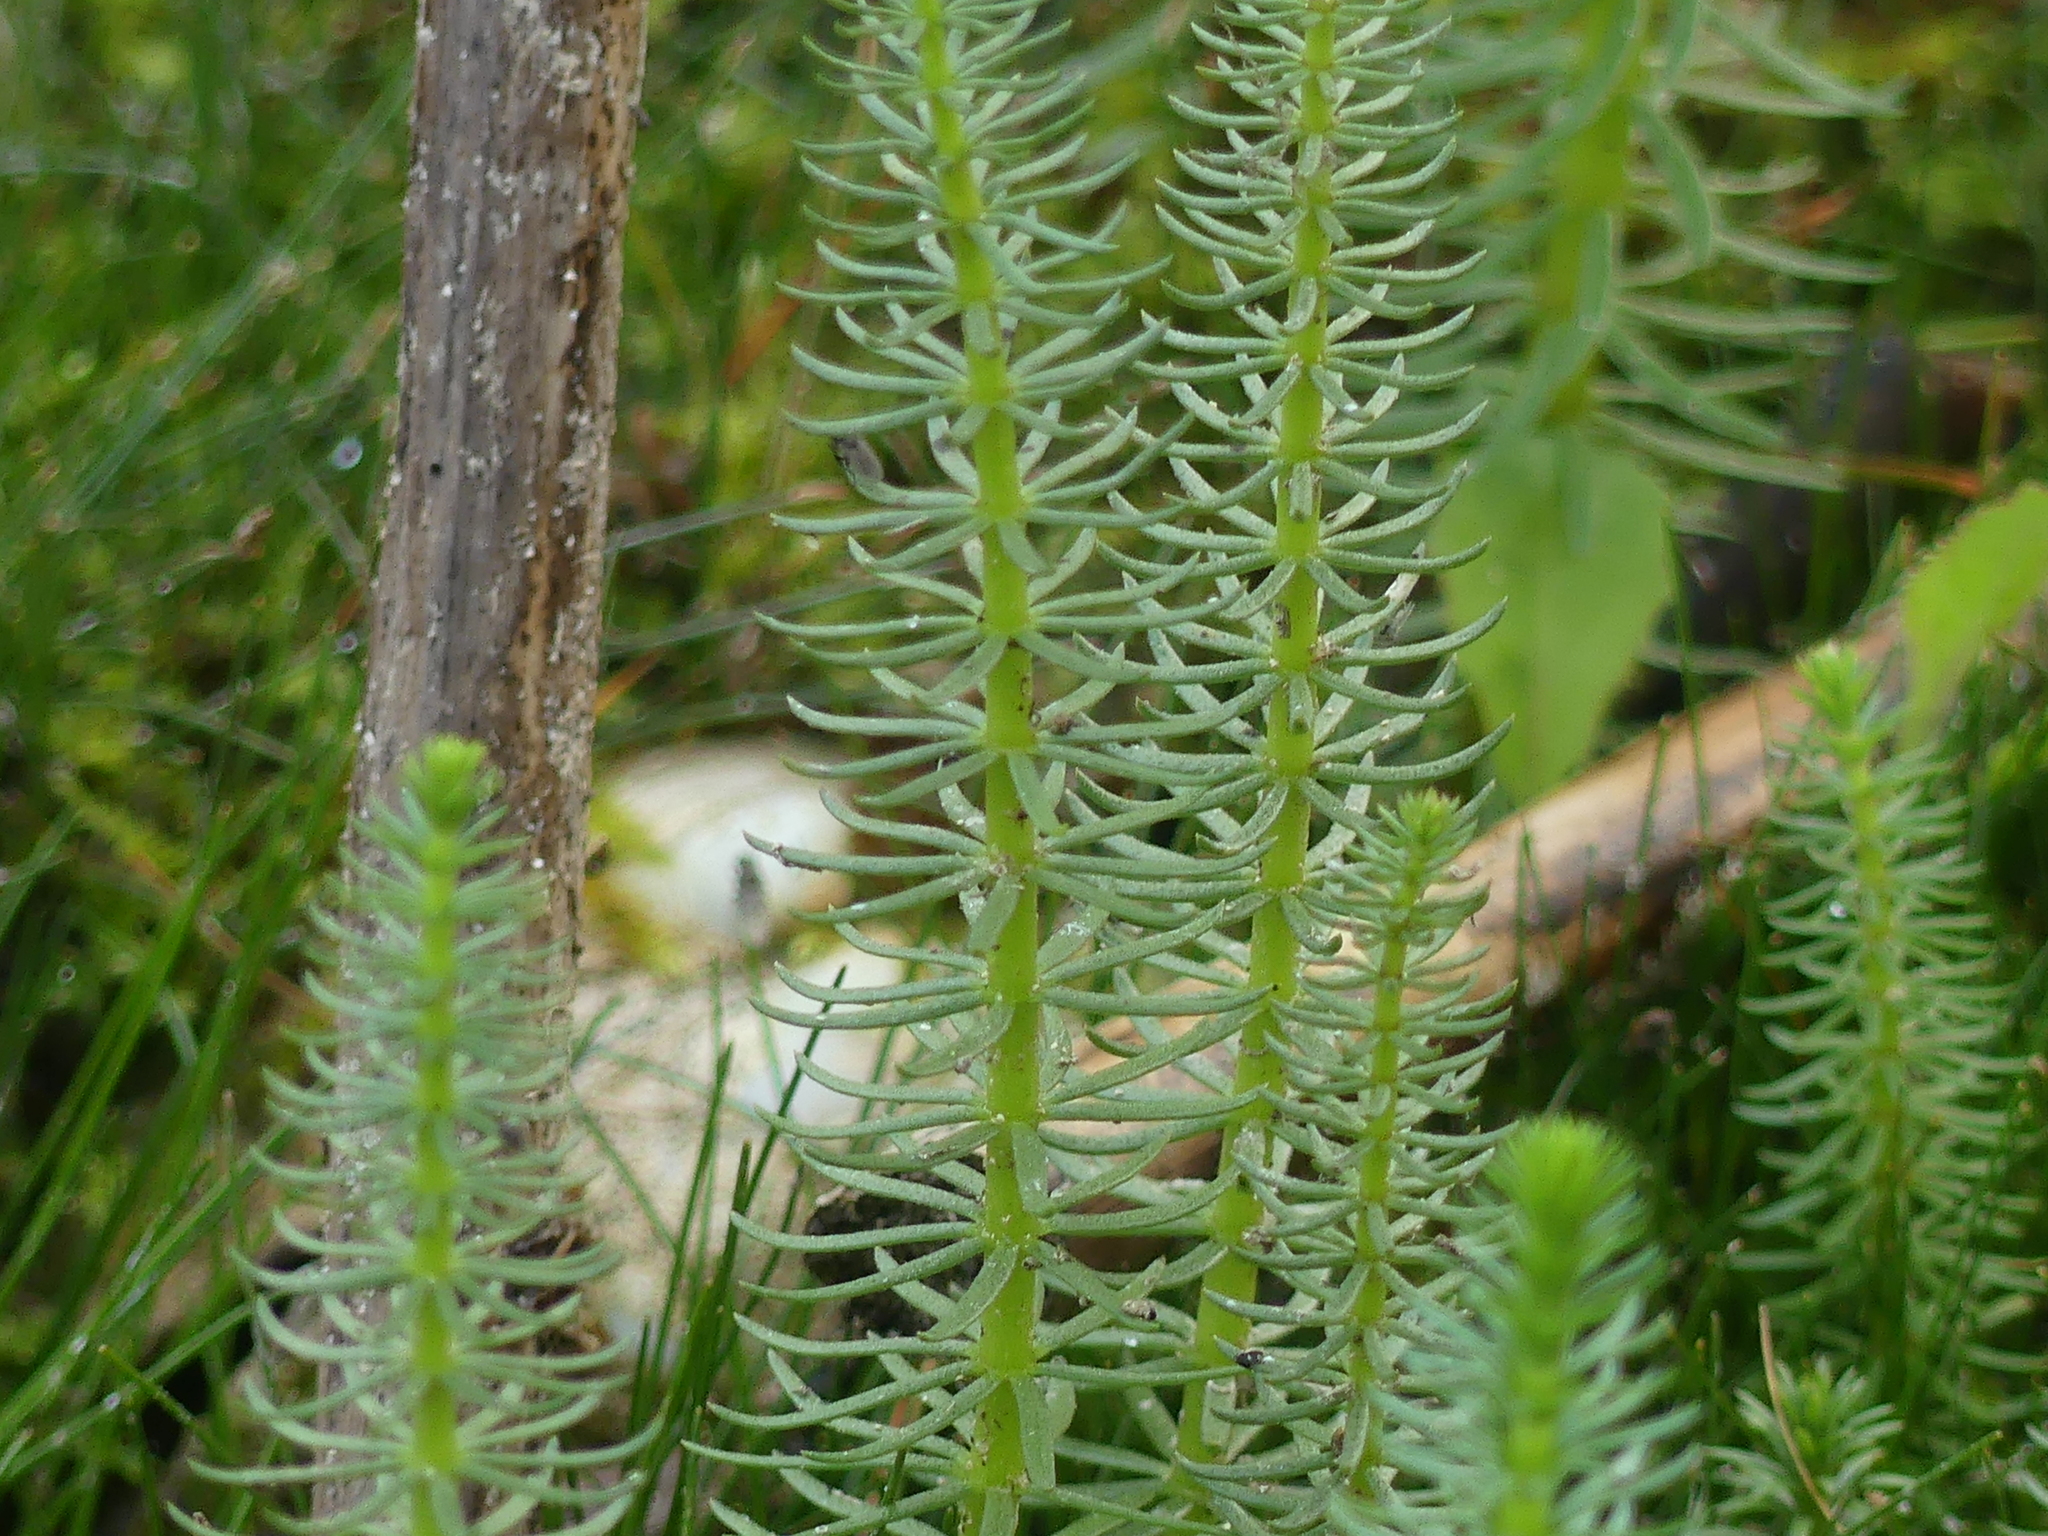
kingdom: Plantae
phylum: Tracheophyta
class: Magnoliopsida
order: Lamiales
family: Plantaginaceae
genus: Hippuris
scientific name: Hippuris vulgaris
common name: Mare's-tail
